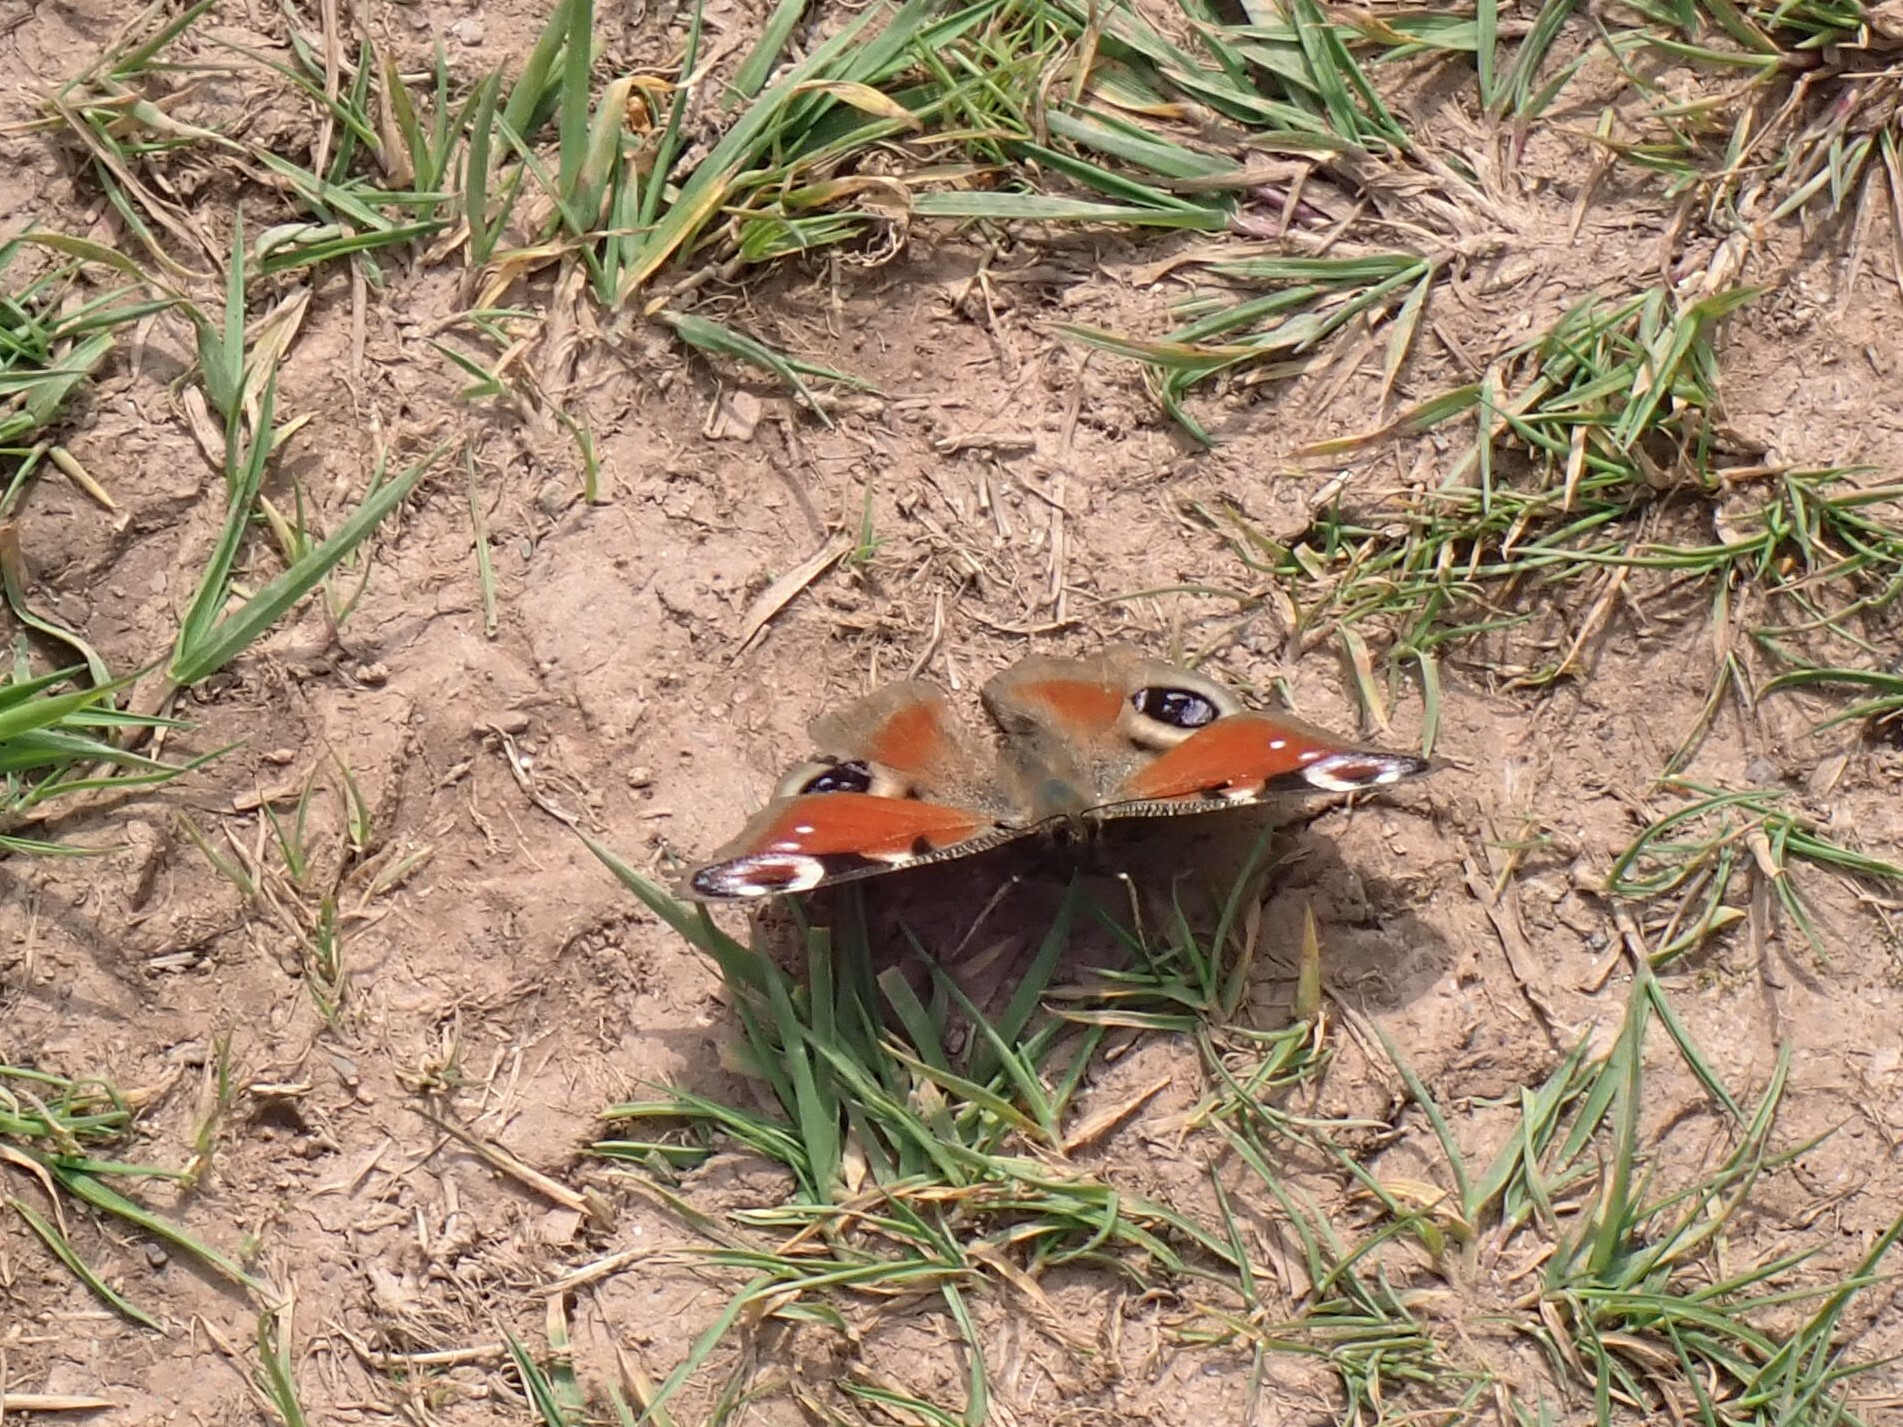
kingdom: Animalia
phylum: Arthropoda
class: Insecta
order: Lepidoptera
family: Nymphalidae
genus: Aglais
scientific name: Aglais io
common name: Peacock
